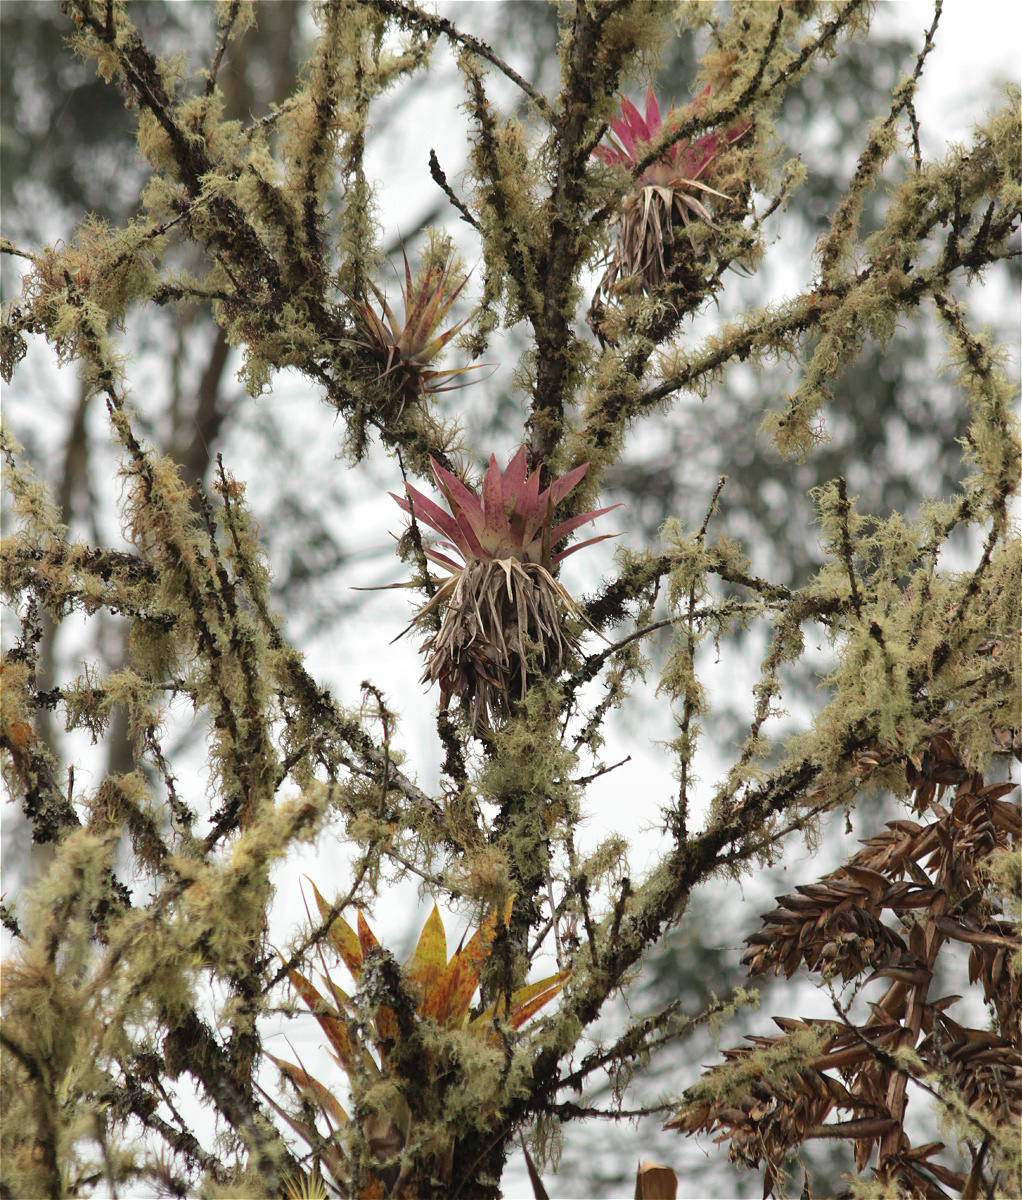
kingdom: Plantae
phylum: Tracheophyta
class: Liliopsida
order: Poales
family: Bromeliaceae
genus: Tillandsia
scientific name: Tillandsia biflora
